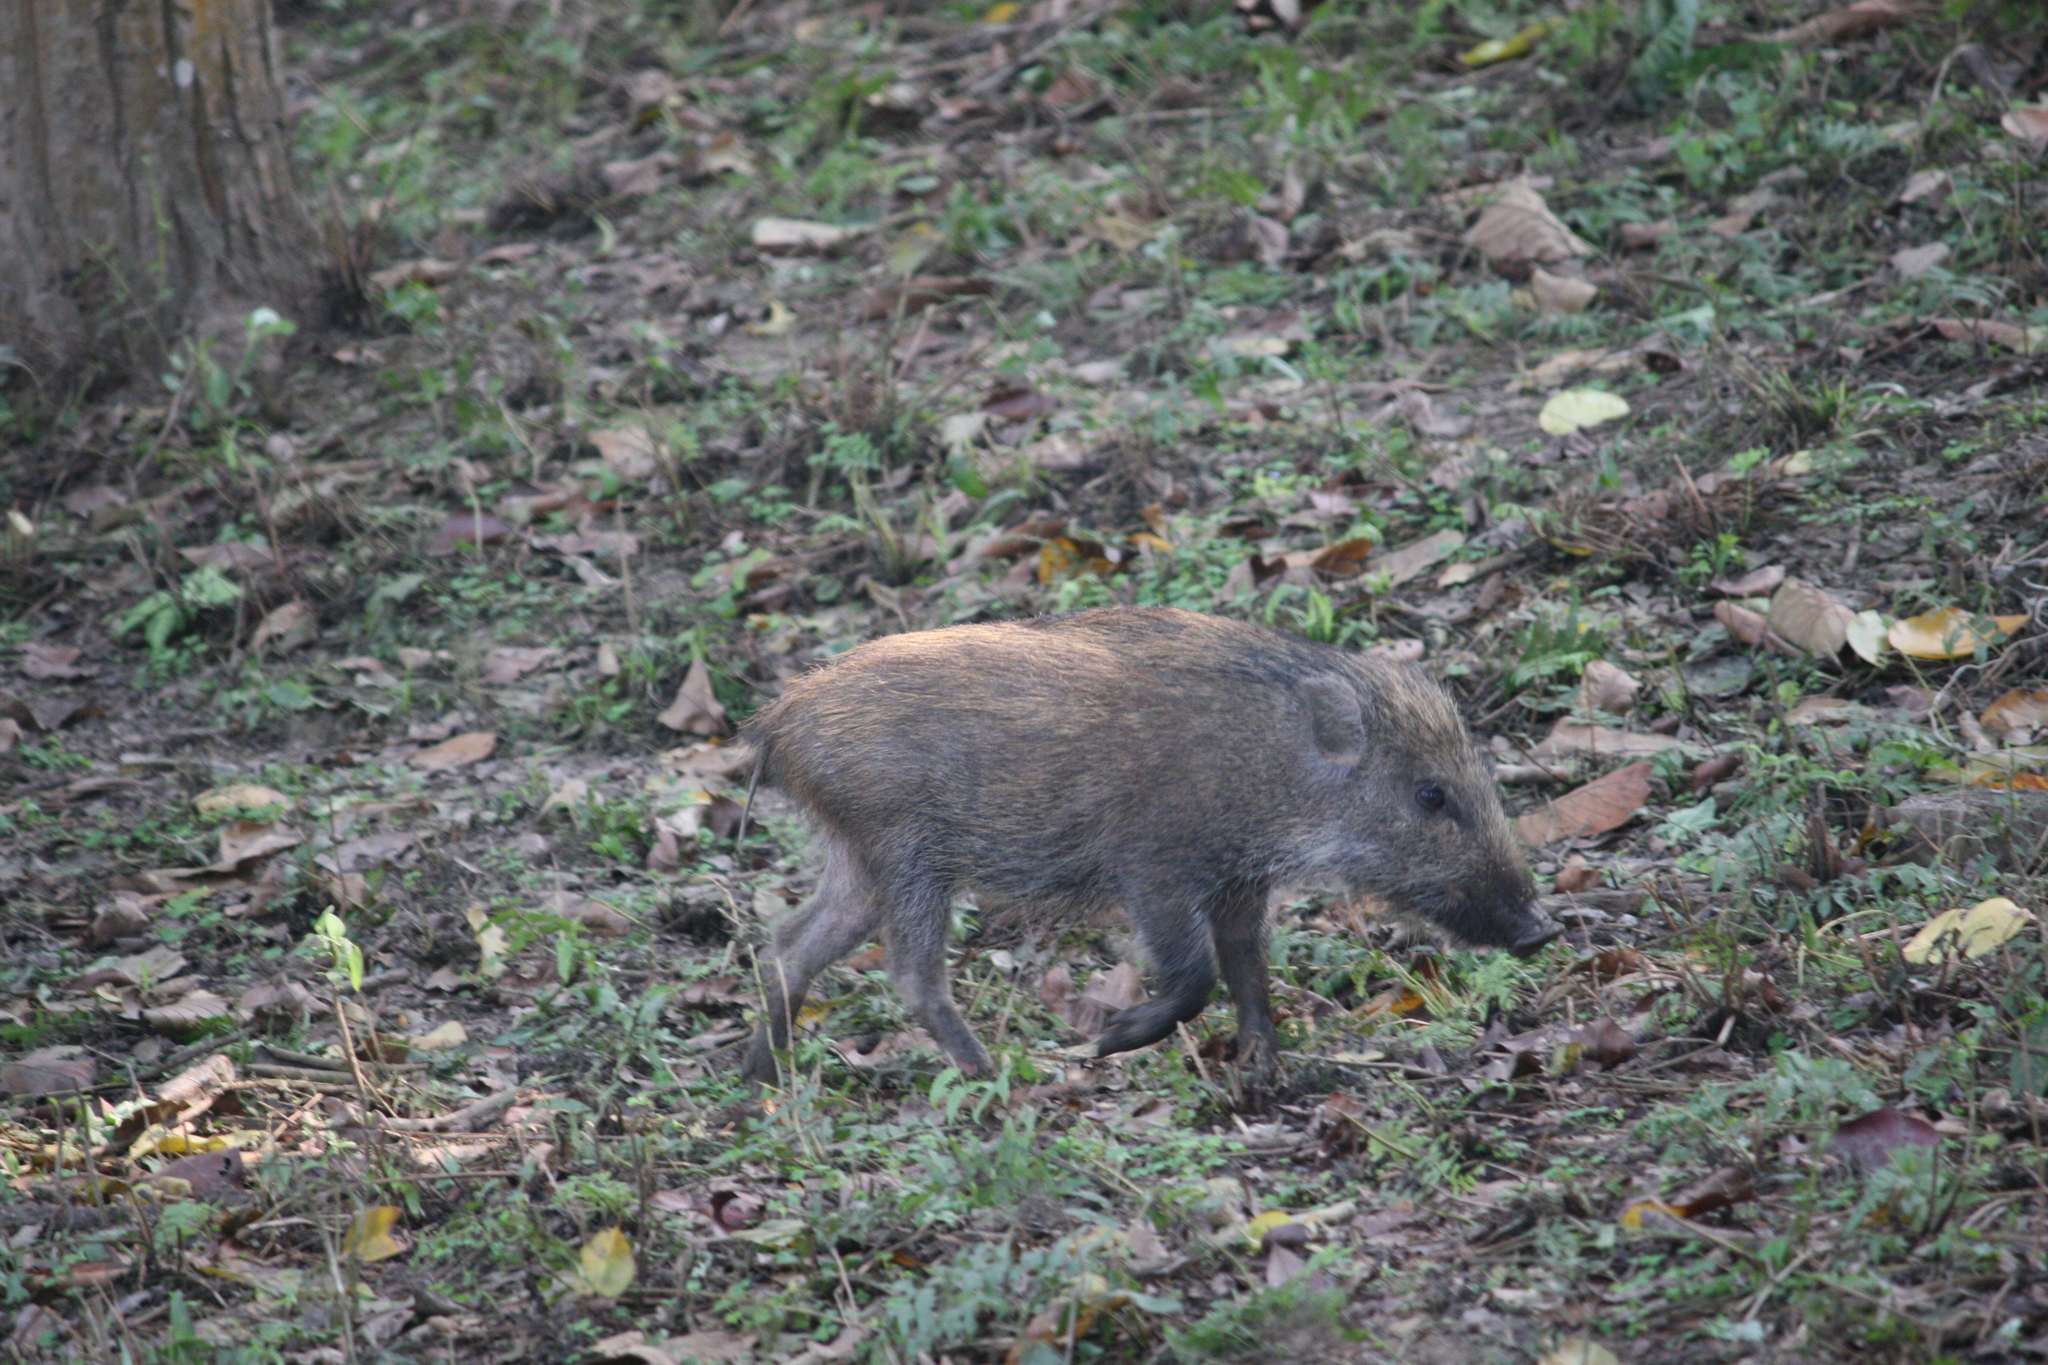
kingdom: Animalia
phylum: Chordata
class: Mammalia
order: Artiodactyla
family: Suidae
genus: Sus
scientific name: Sus scrofa
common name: Wild boar
